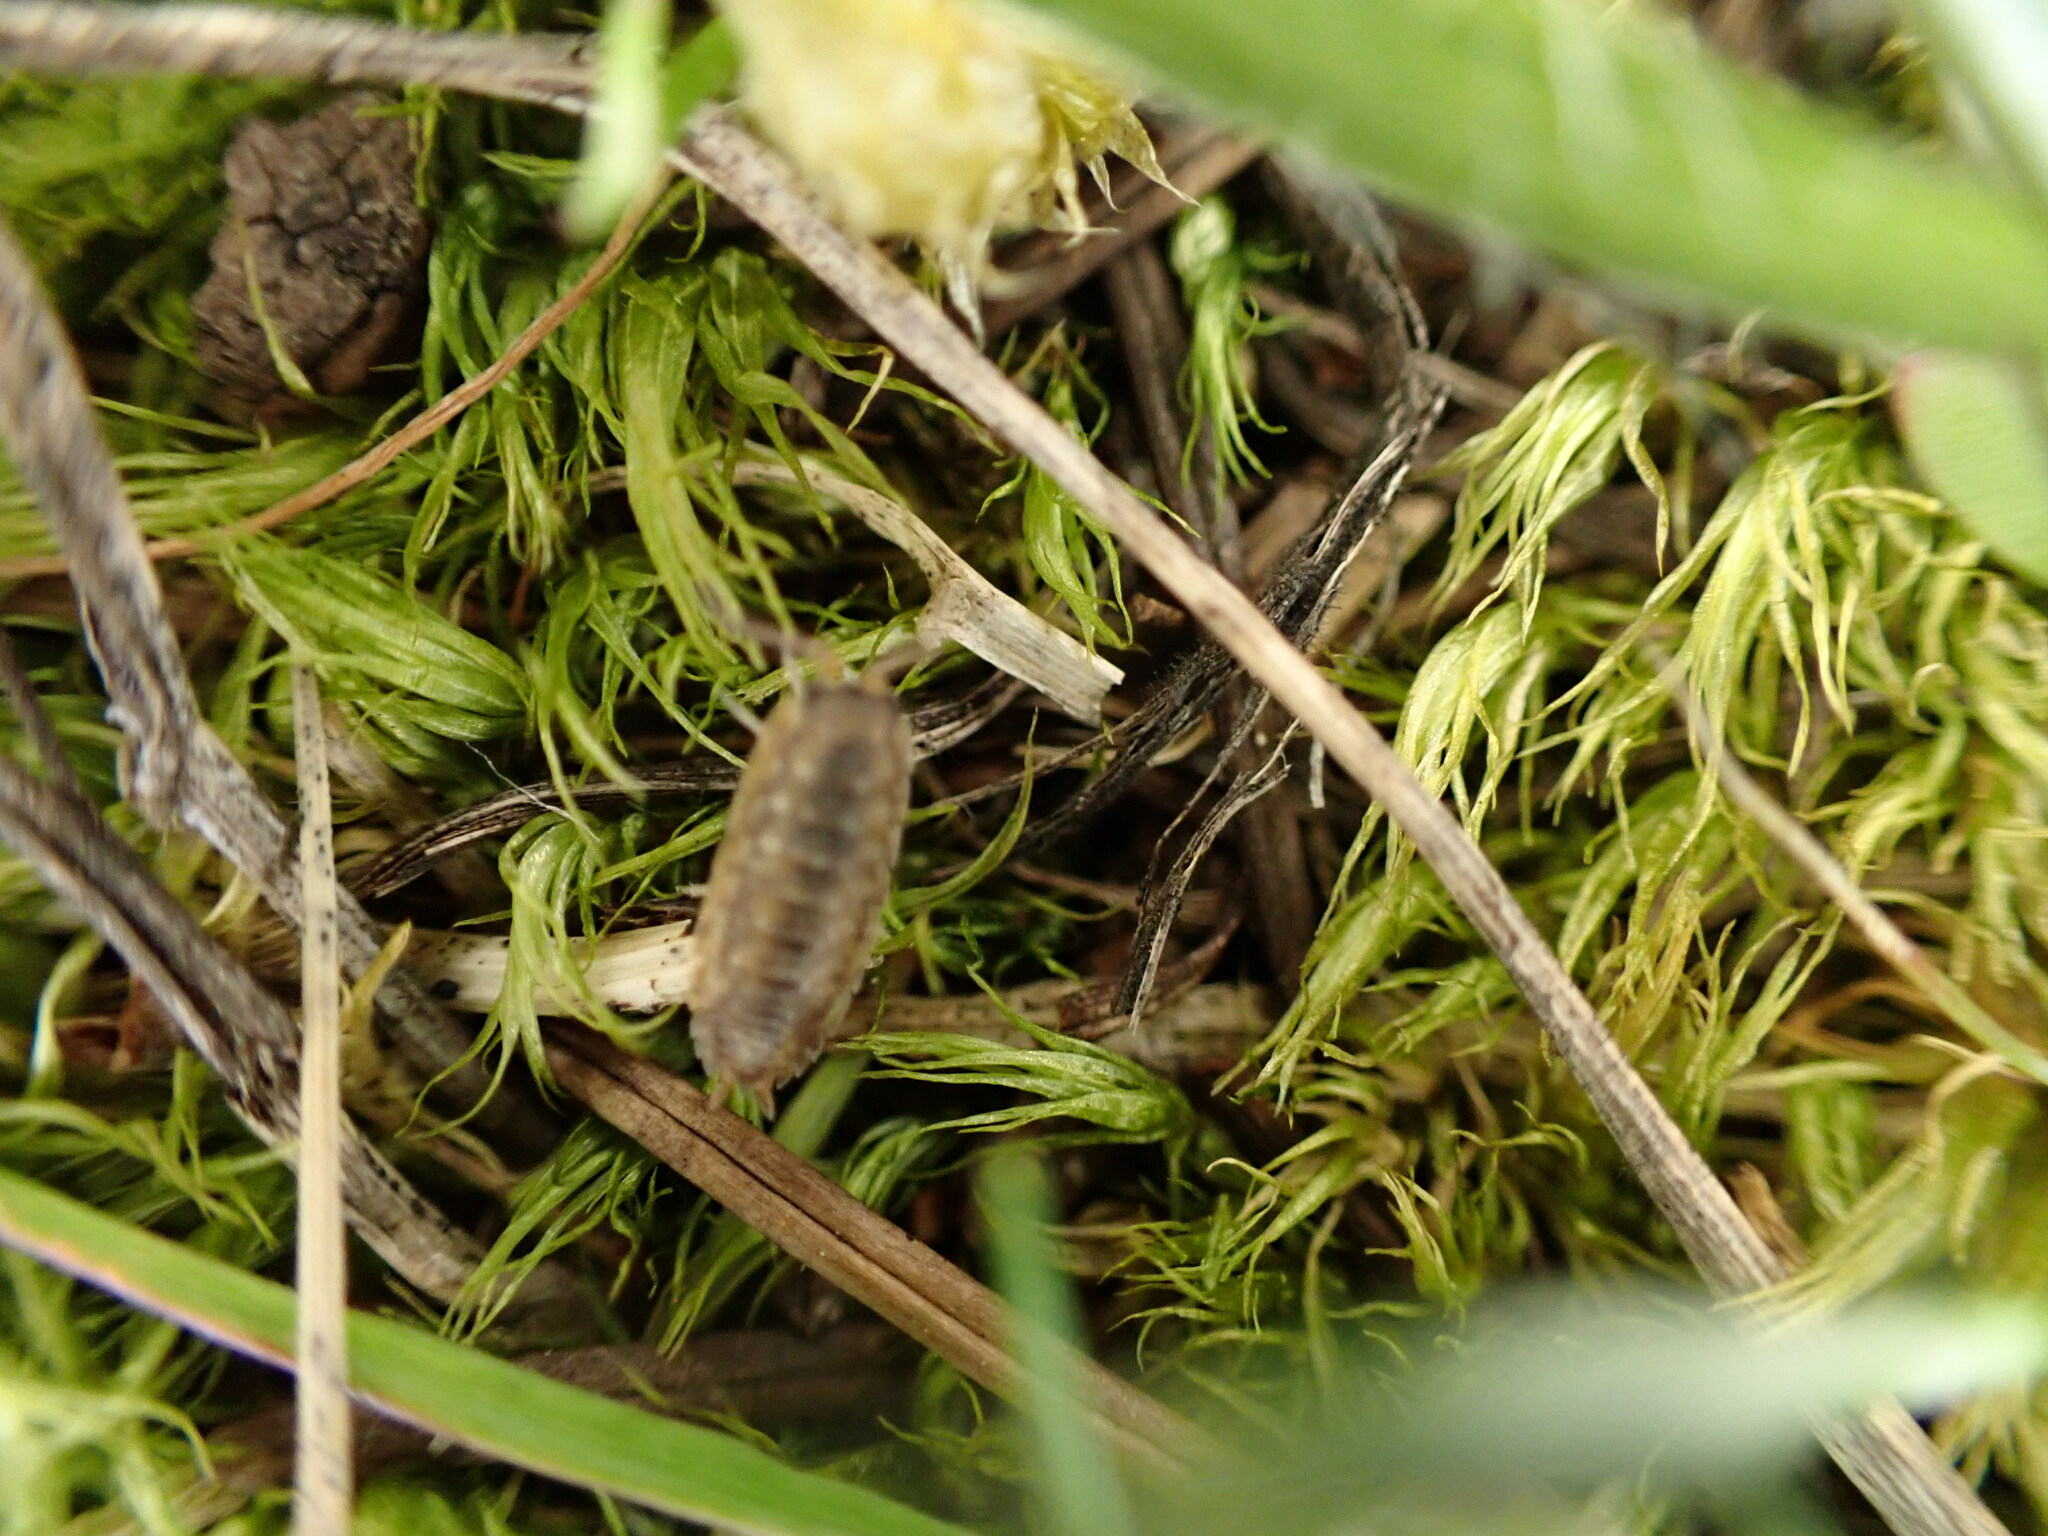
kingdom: Animalia
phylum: Arthropoda
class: Malacostraca
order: Isopoda
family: Porcellionidae
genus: Porcellio
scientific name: Porcellio scaber
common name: Common rough woodlouse
